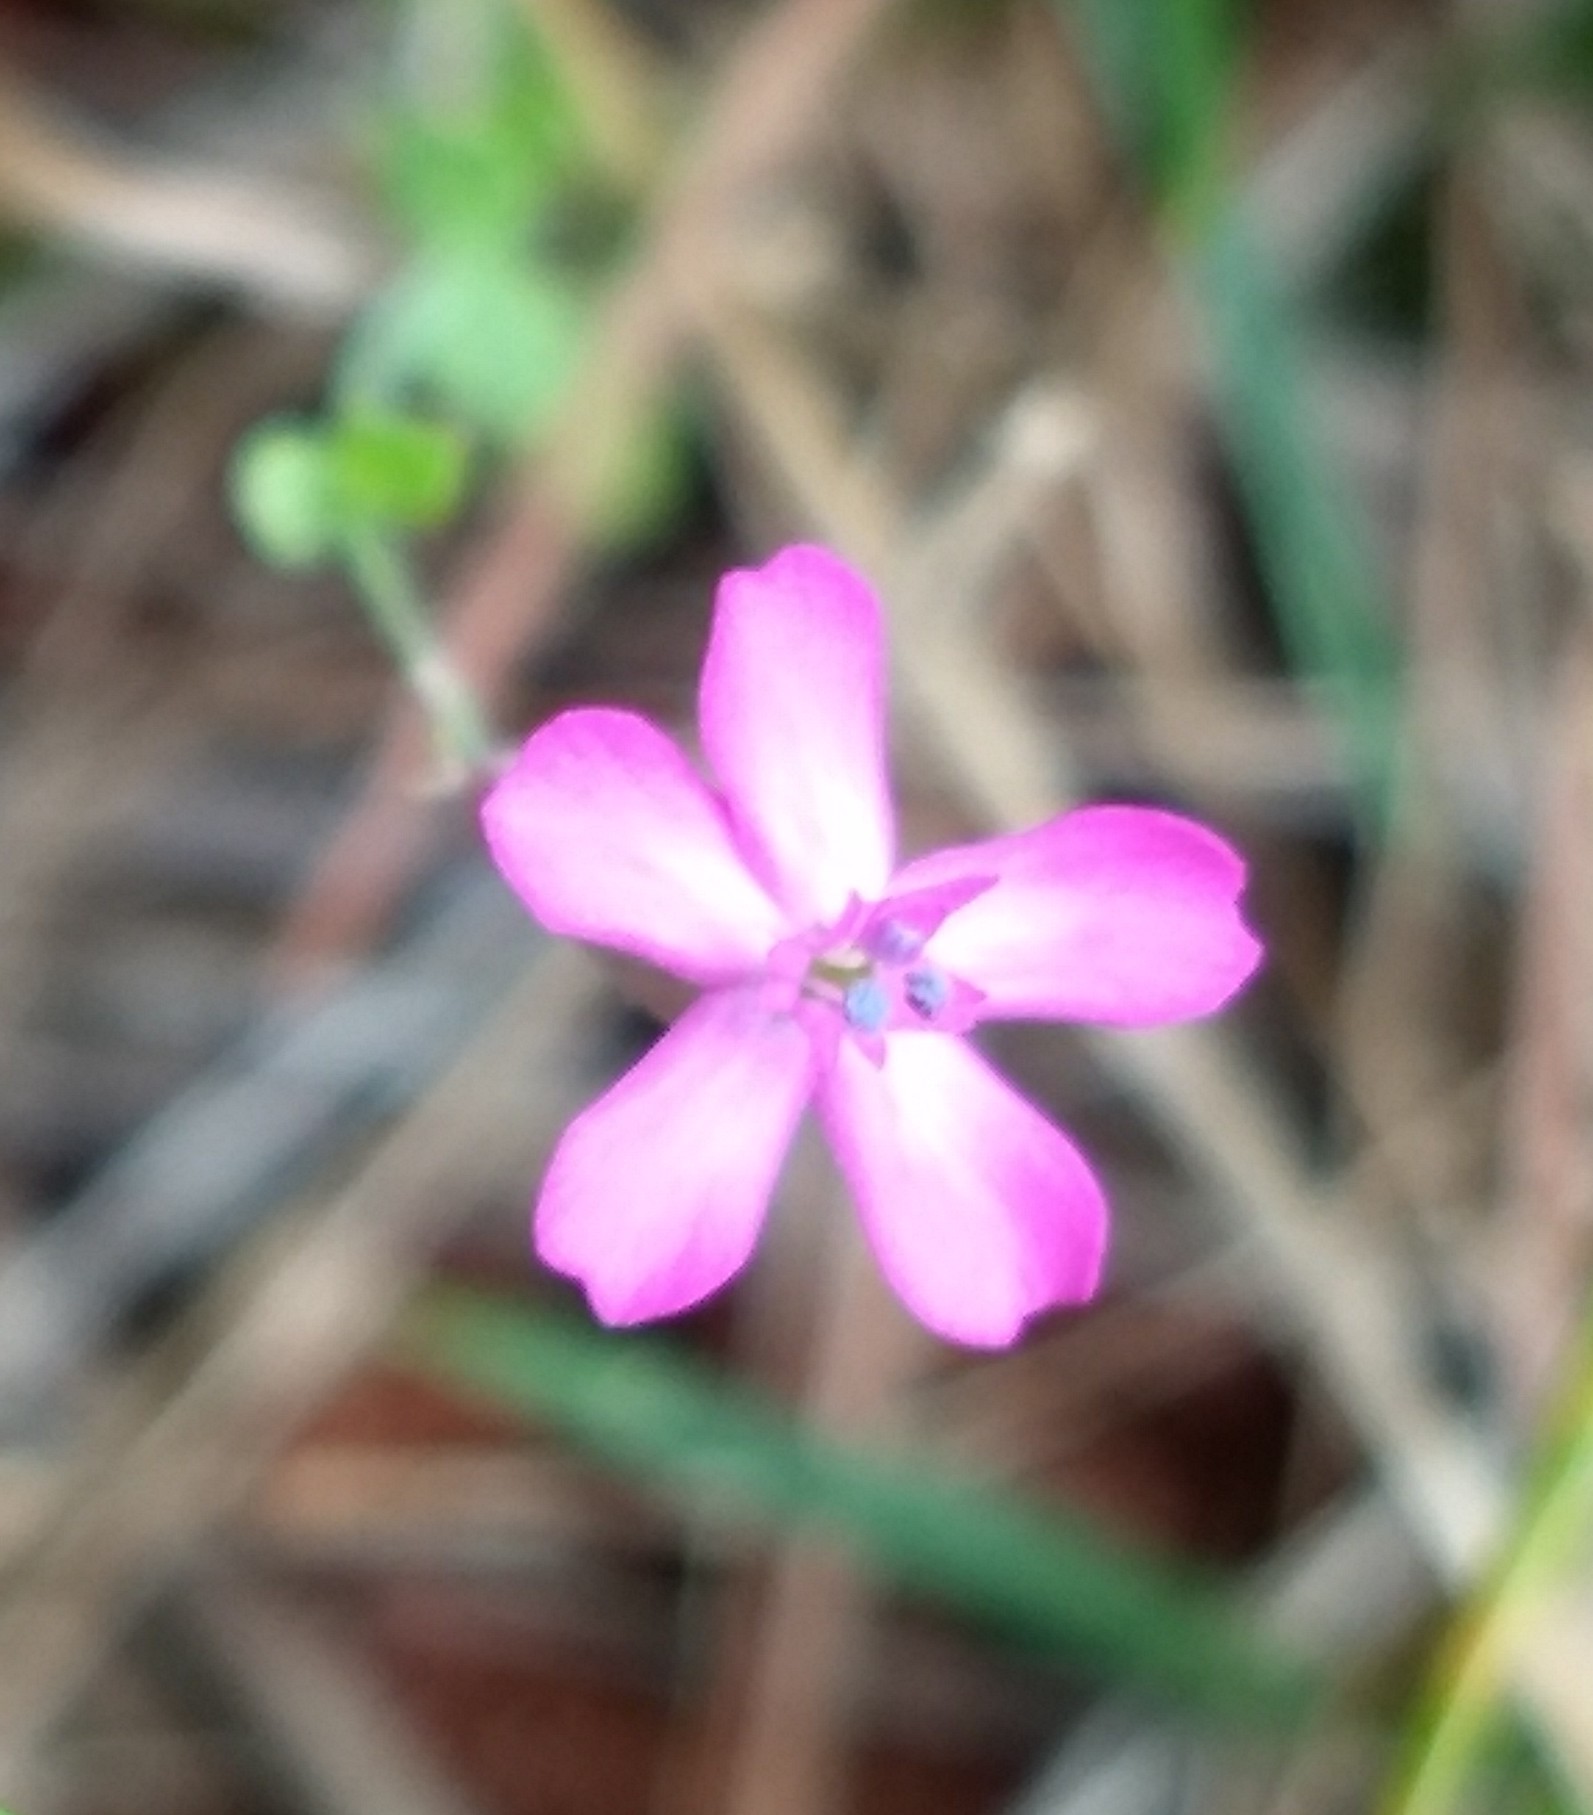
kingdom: Plantae
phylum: Tracheophyta
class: Magnoliopsida
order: Caryophyllales
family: Caryophyllaceae
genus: Atocion
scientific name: Atocion armeria
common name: Sweet william catchfly
